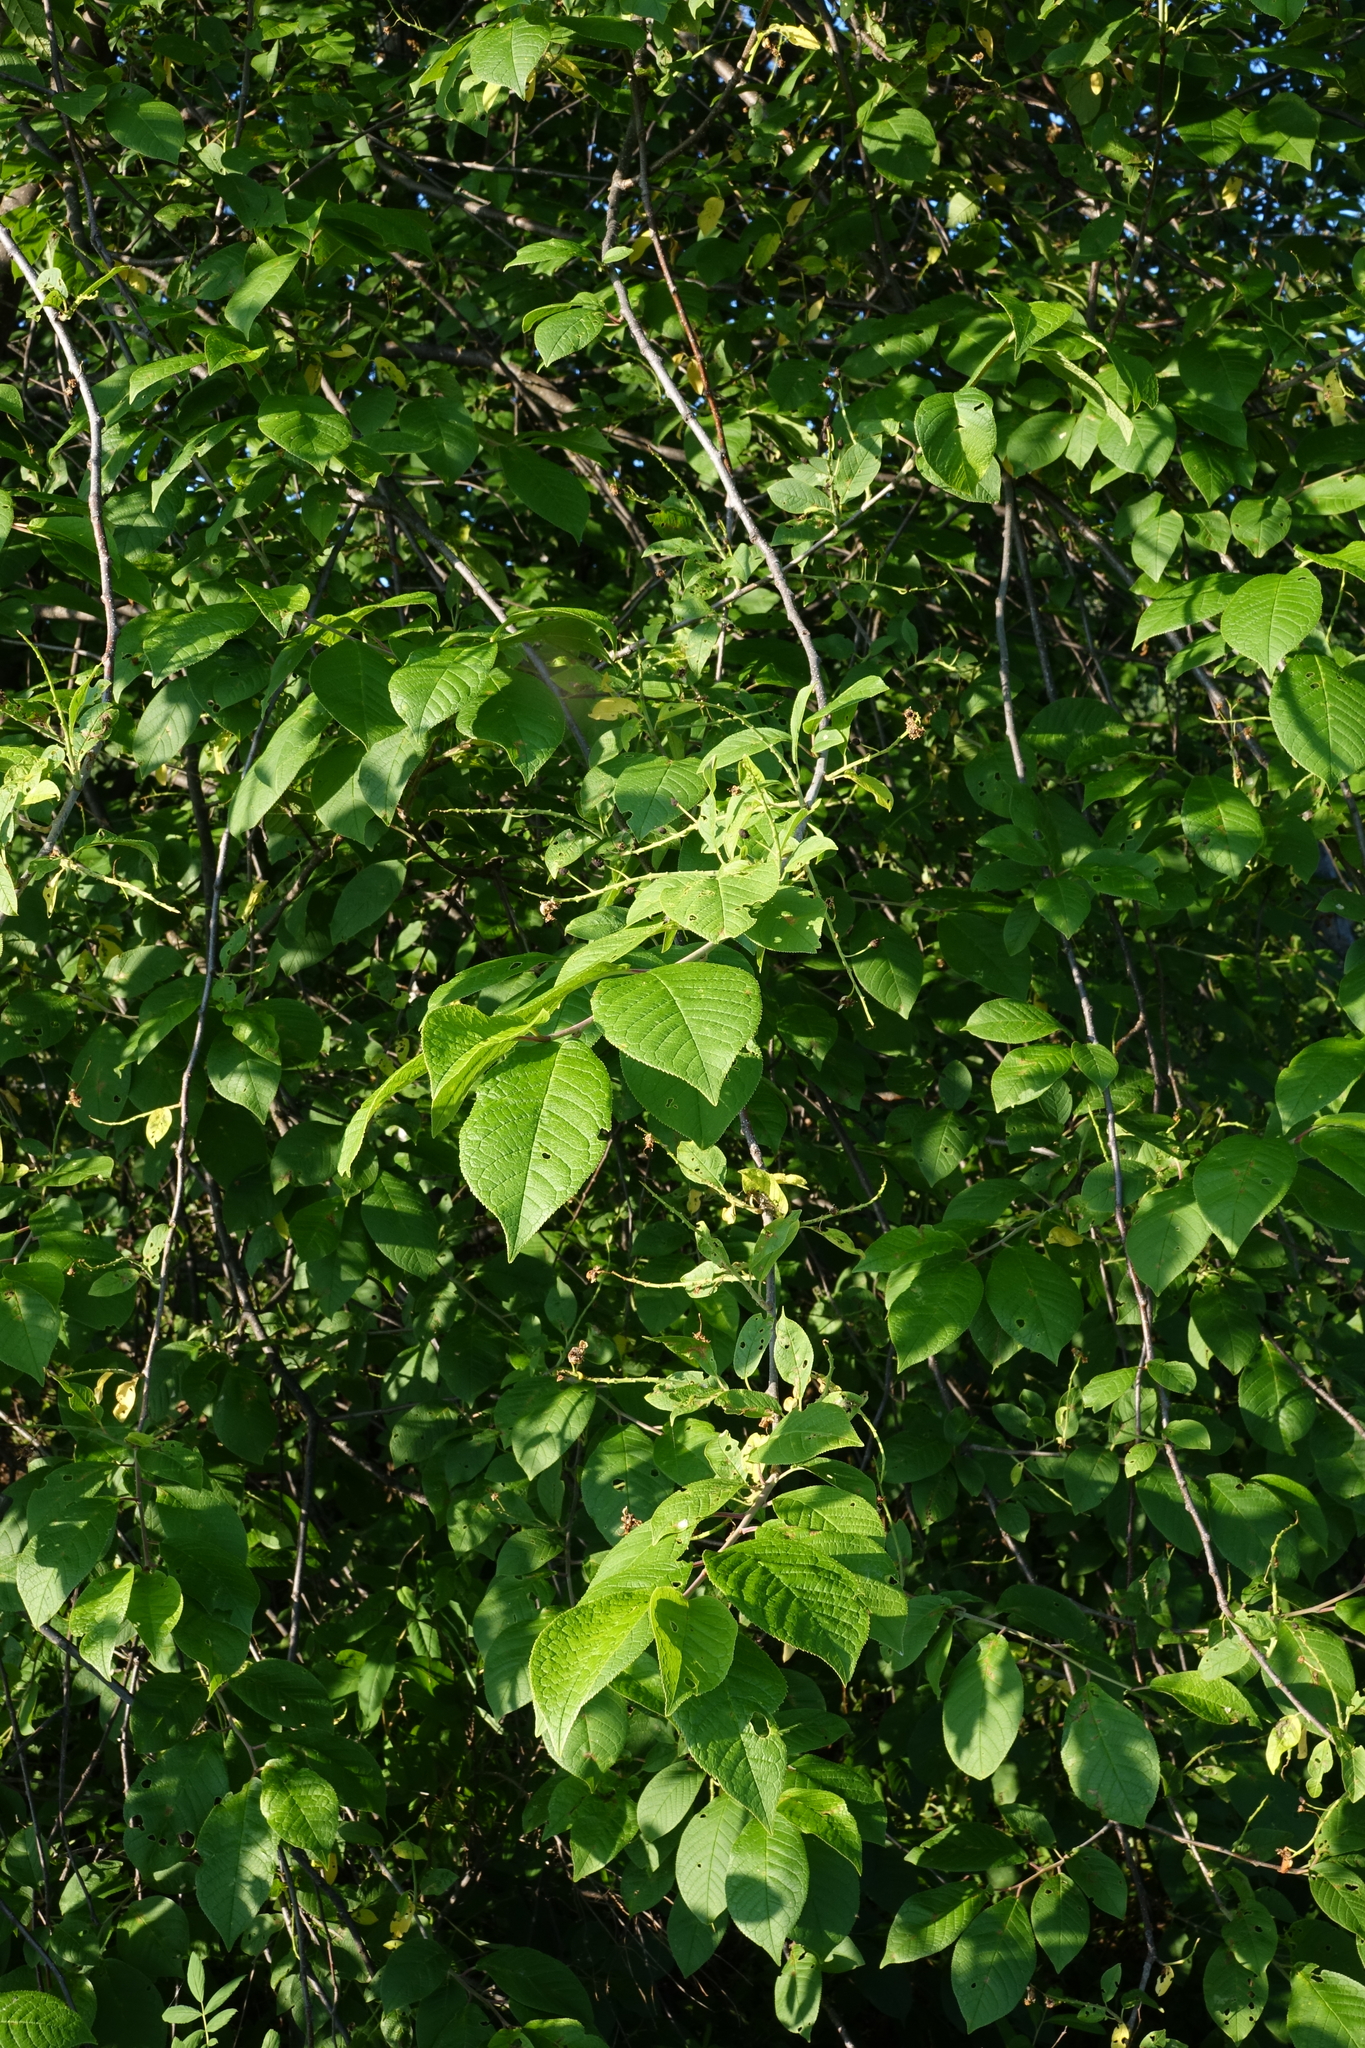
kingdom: Plantae
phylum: Tracheophyta
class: Magnoliopsida
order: Rosales
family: Rosaceae
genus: Prunus
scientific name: Prunus padus
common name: Bird cherry
